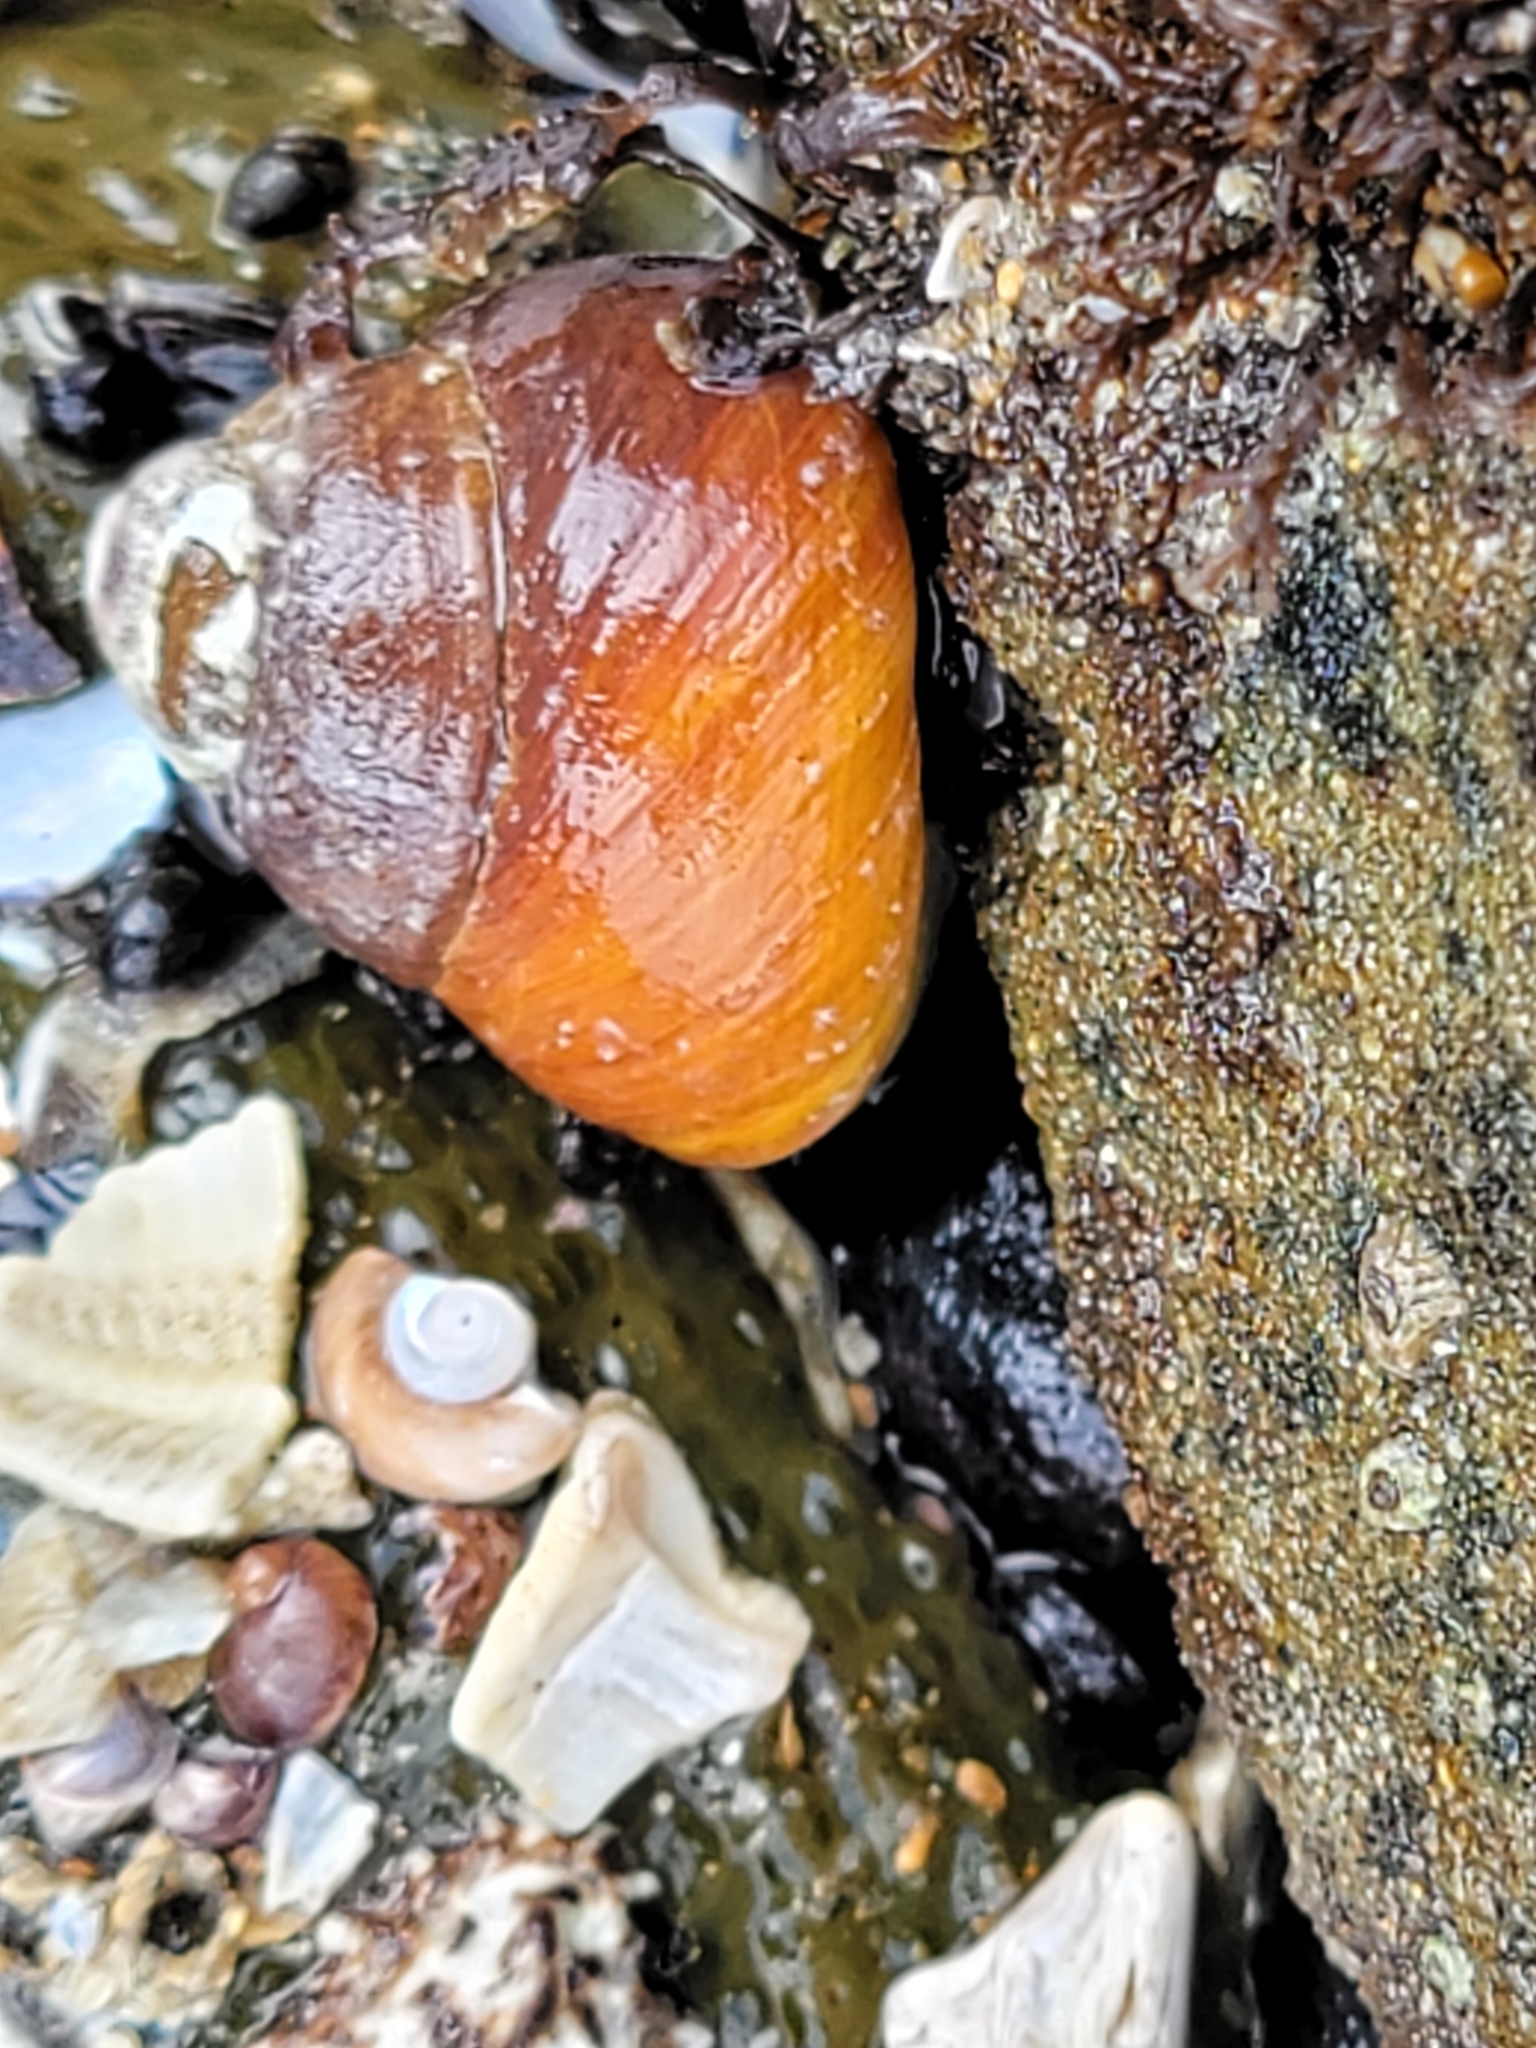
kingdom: Animalia
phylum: Mollusca
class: Gastropoda
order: Trochida
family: Tegulidae
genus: Tegula
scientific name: Tegula brunnea
